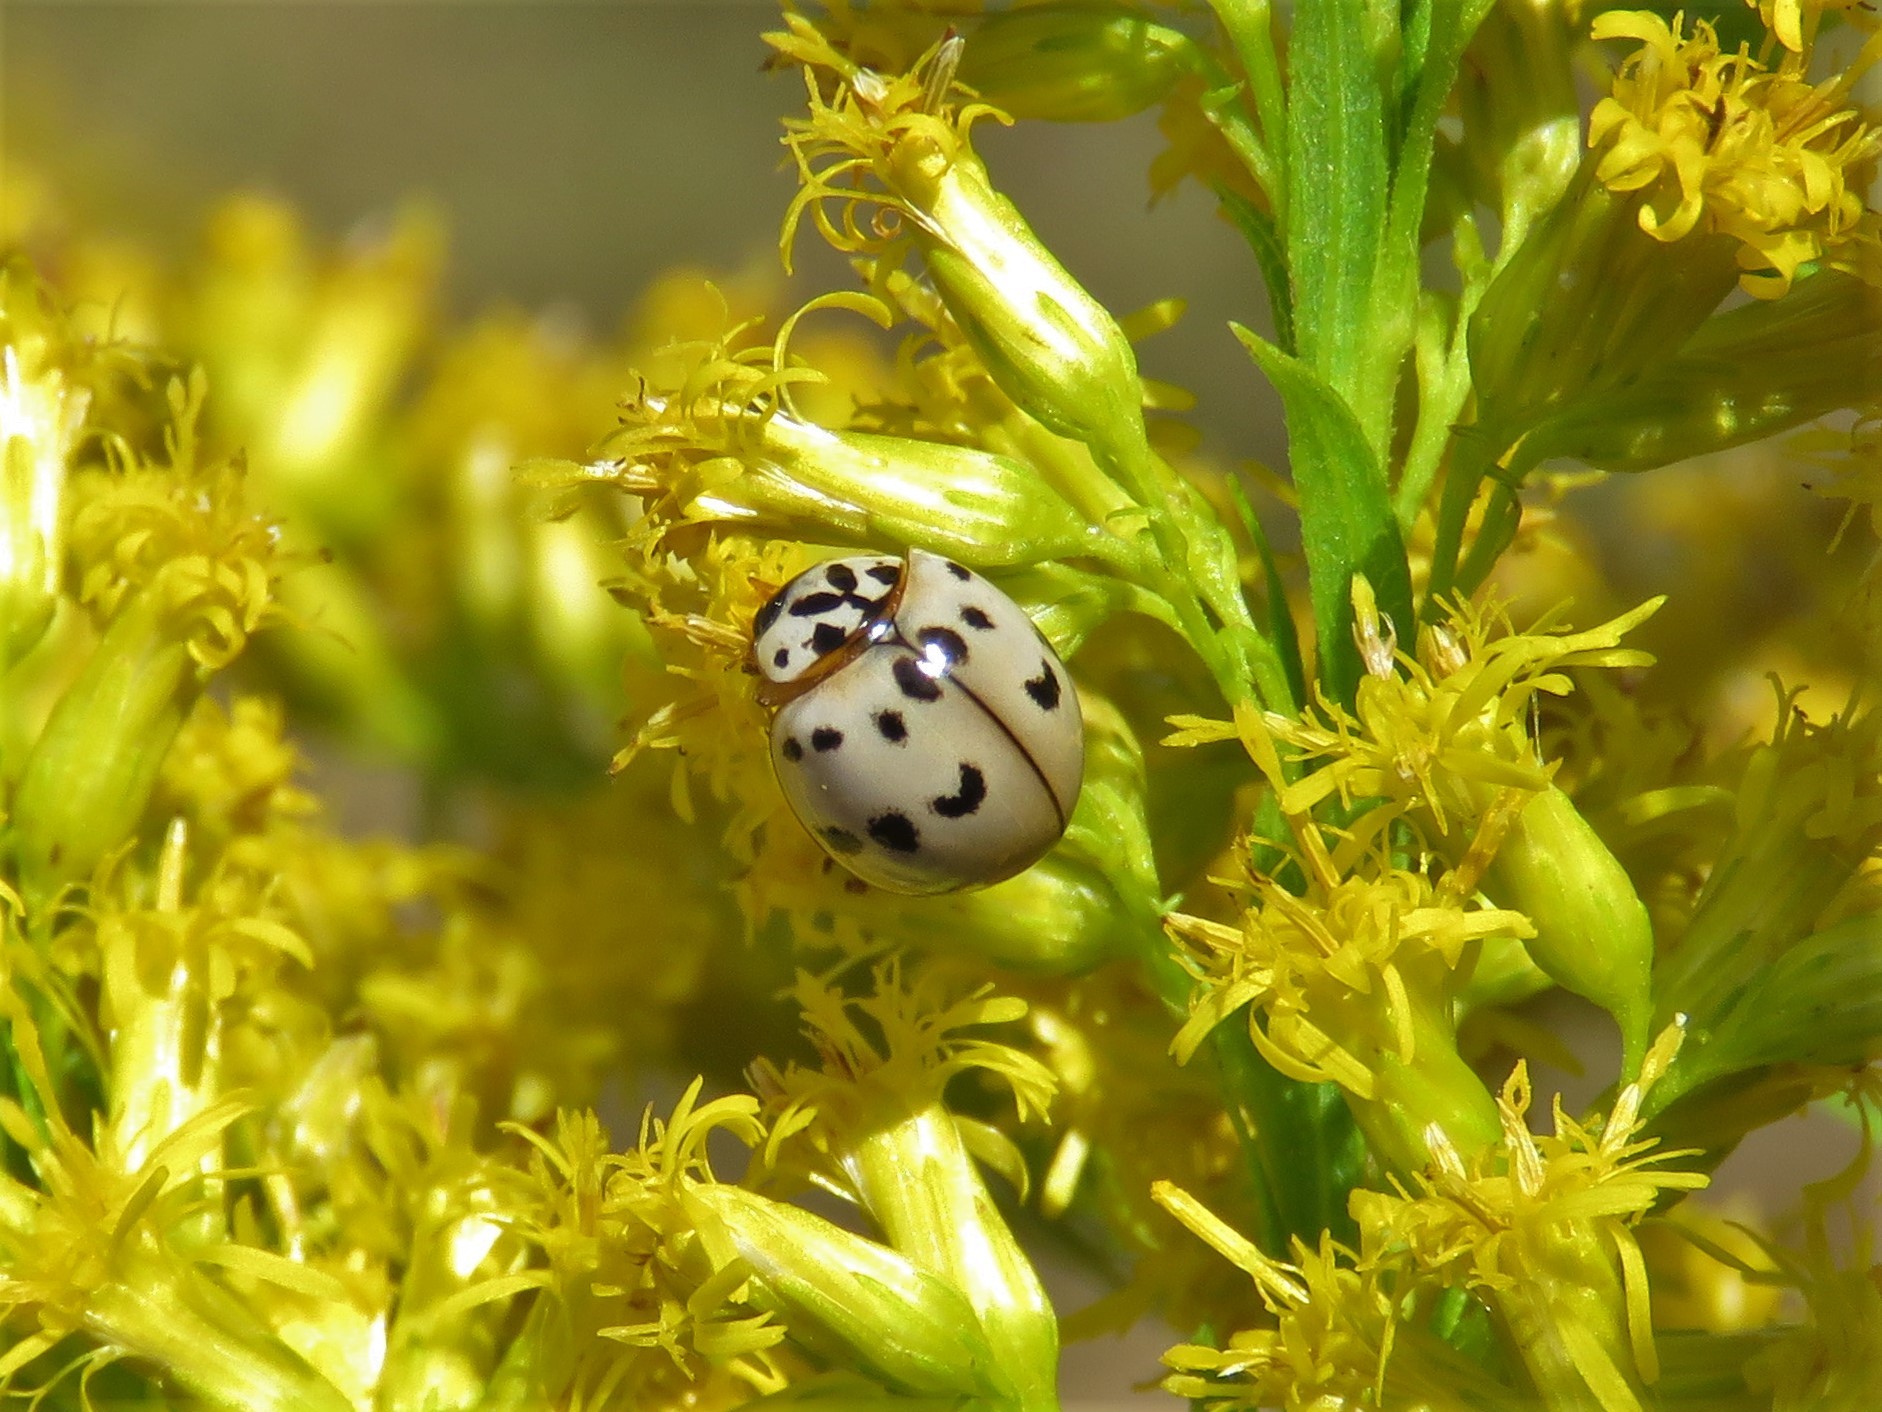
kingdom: Animalia
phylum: Arthropoda
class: Insecta
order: Coleoptera
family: Coccinellidae
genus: Olla
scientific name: Olla v-nigrum
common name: Ashy gray lady beetle
